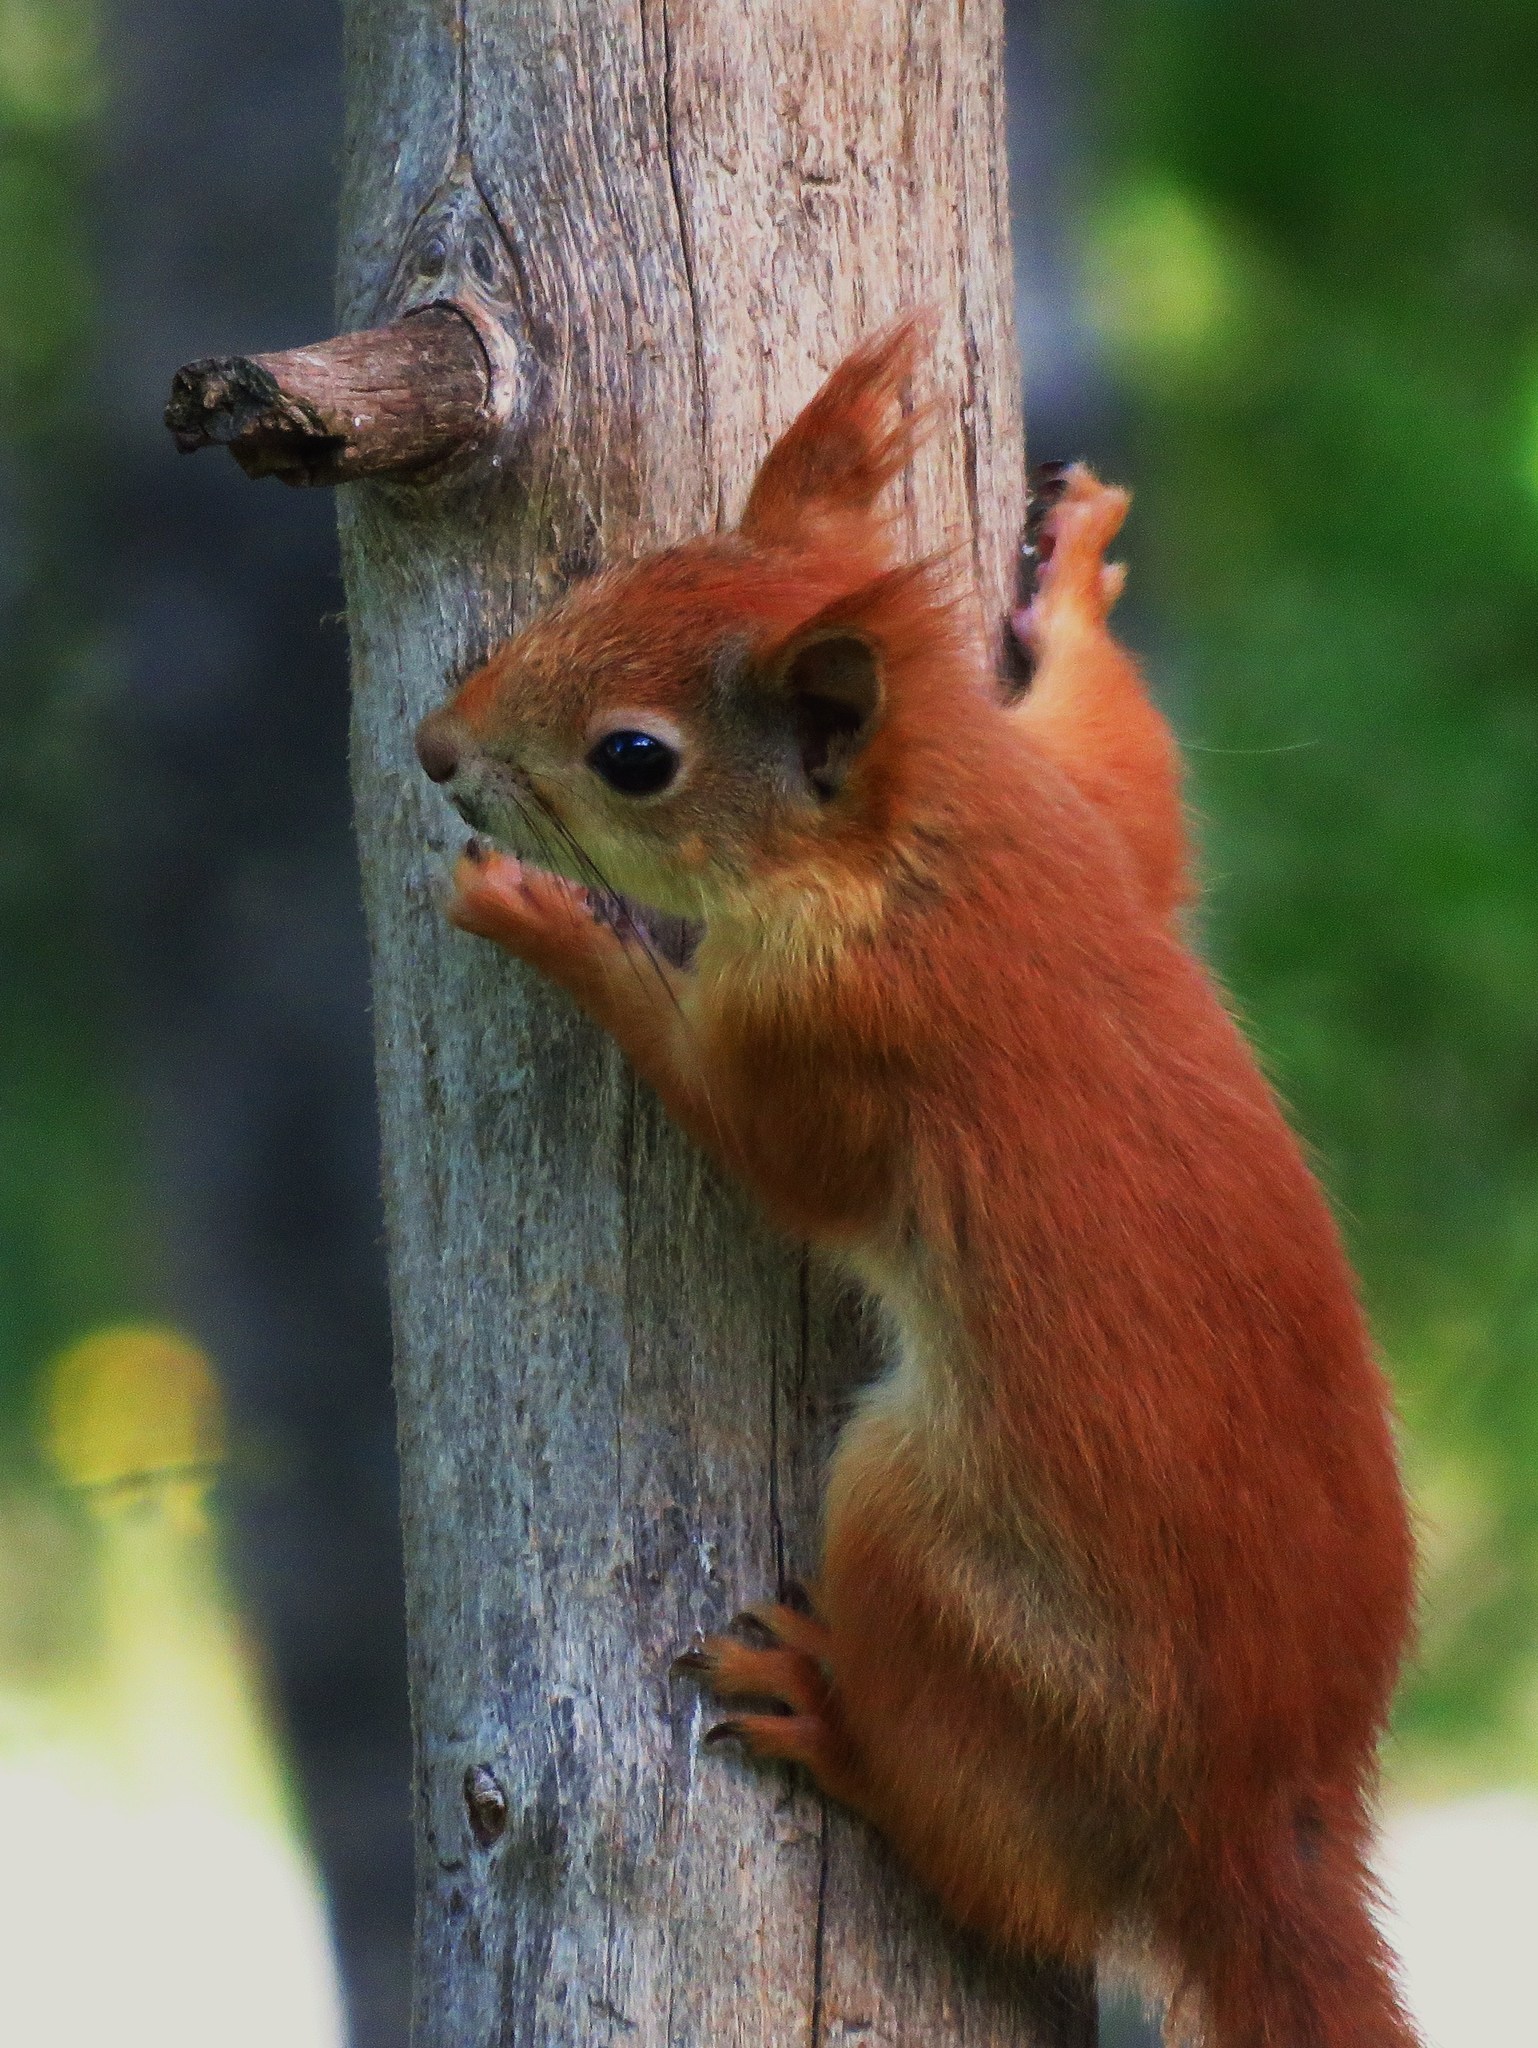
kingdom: Animalia
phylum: Chordata
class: Mammalia
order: Rodentia
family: Sciuridae
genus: Sciurus
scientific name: Sciurus vulgaris
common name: Eurasian red squirrel
